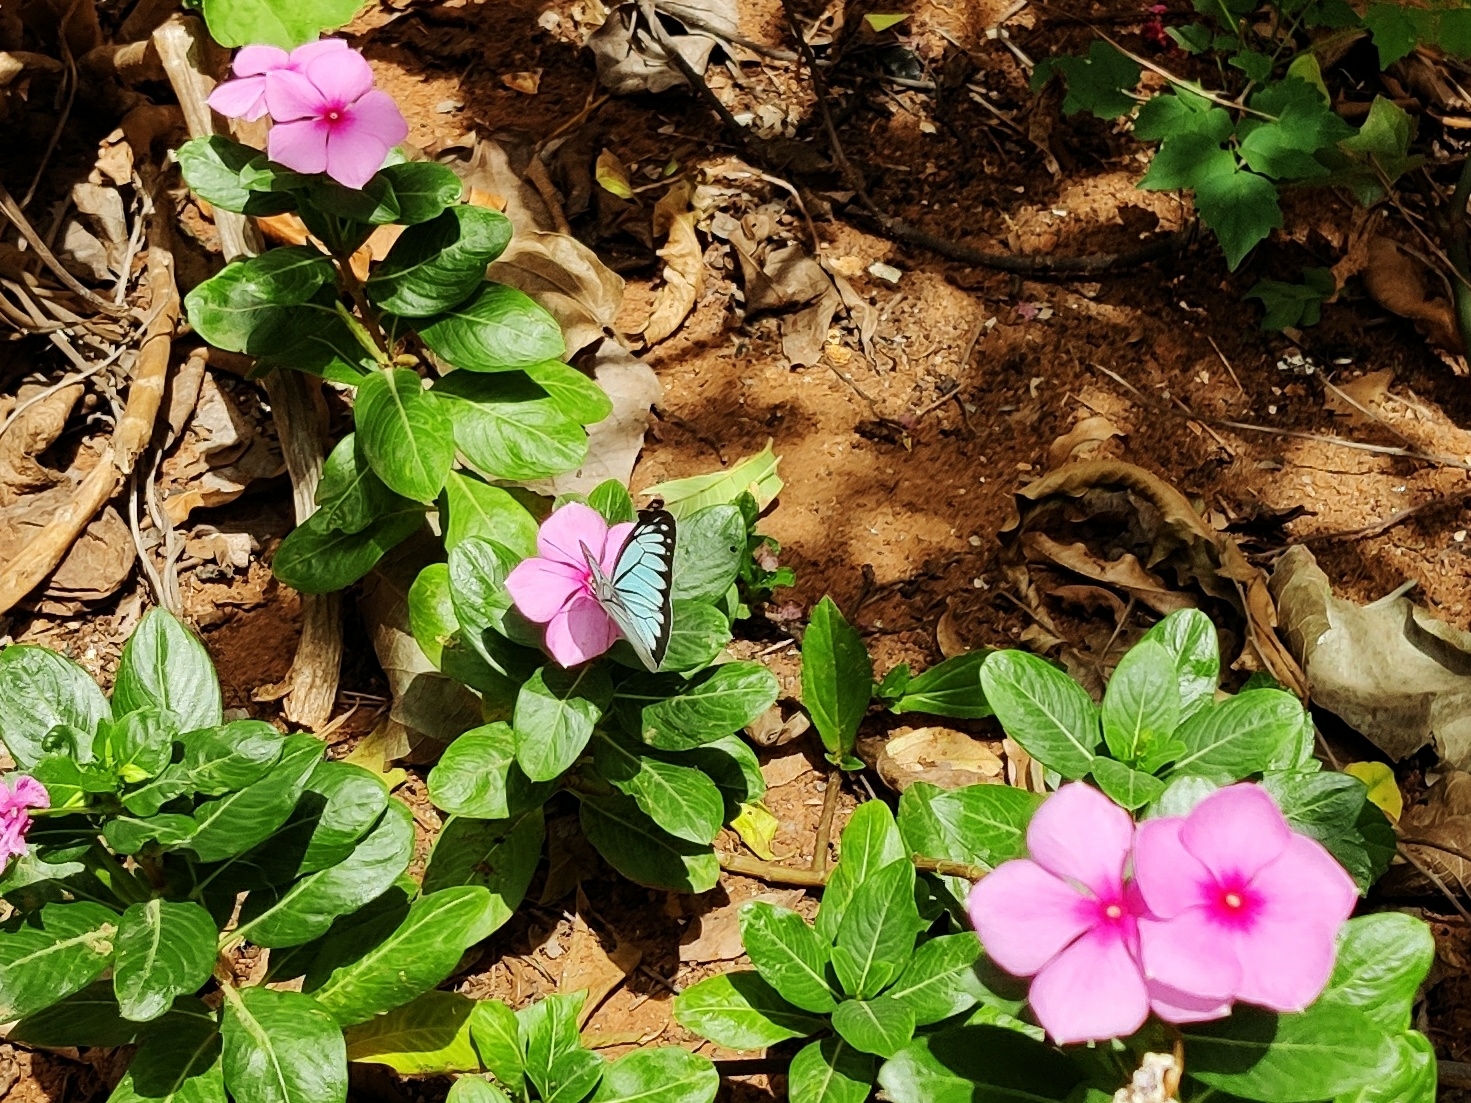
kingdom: Animalia
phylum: Arthropoda
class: Insecta
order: Lepidoptera
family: Pieridae
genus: Pareronia
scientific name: Pareronia hippia
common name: Indian wanderer
